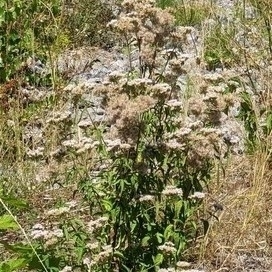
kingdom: Plantae
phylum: Tracheophyta
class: Magnoliopsida
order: Asterales
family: Asteraceae
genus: Eupatorium
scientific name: Eupatorium cannabinum
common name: Hemp-agrimony
